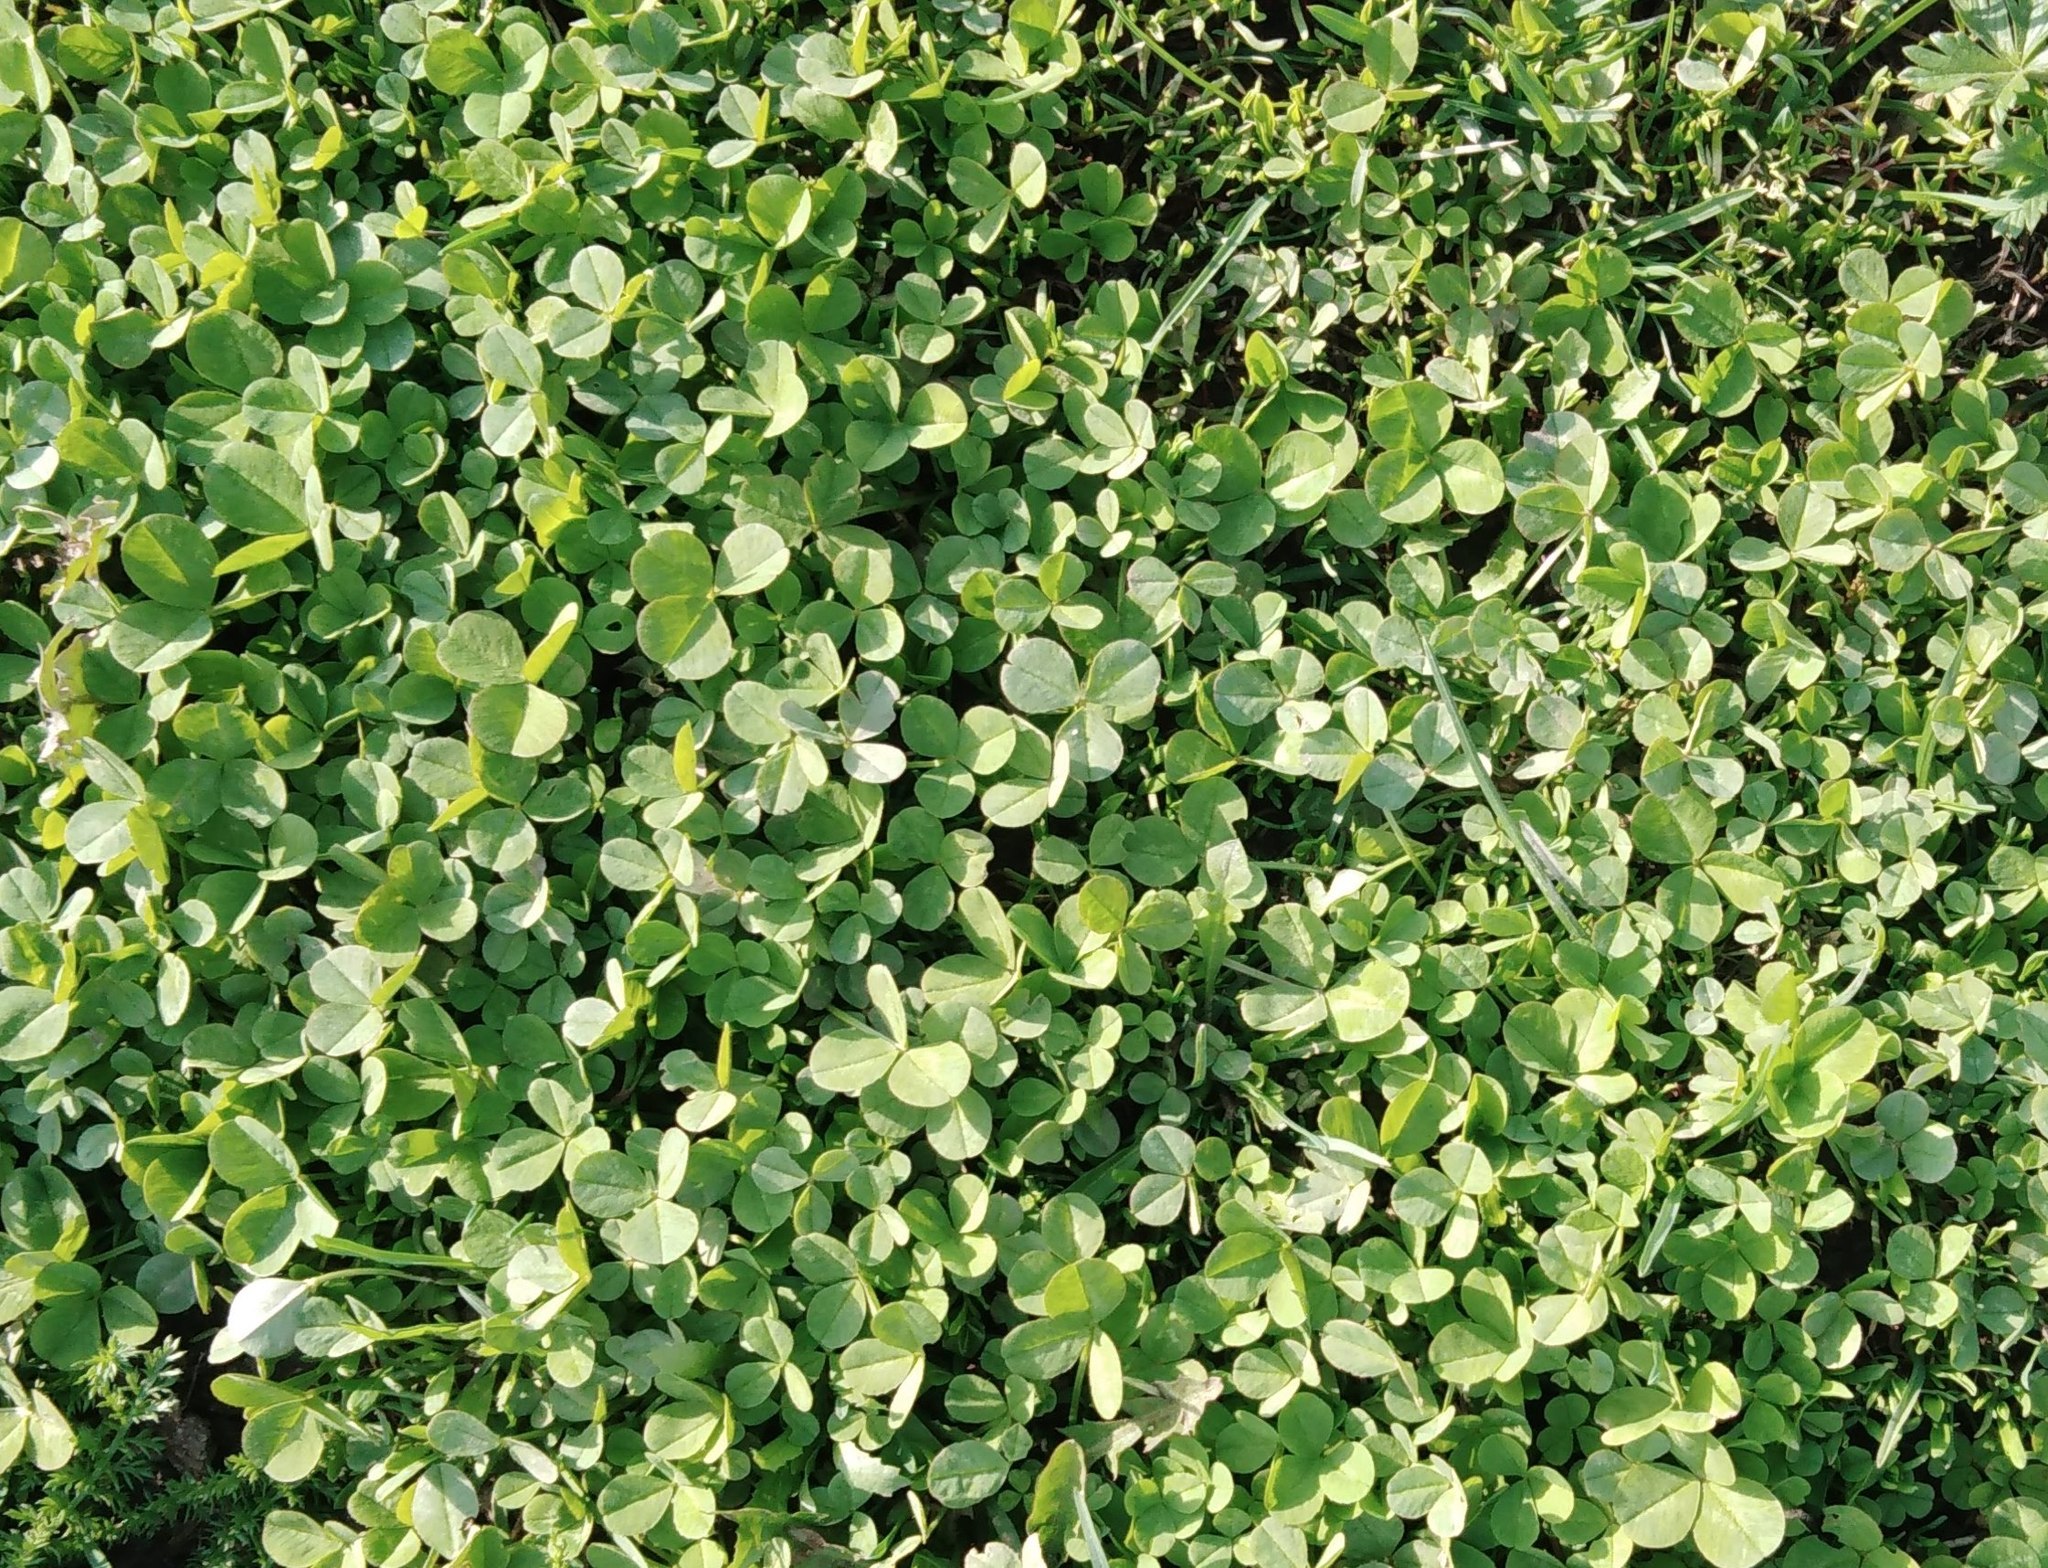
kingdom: Plantae
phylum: Tracheophyta
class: Magnoliopsida
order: Fabales
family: Fabaceae
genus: Trifolium
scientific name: Trifolium repens
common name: White clover
